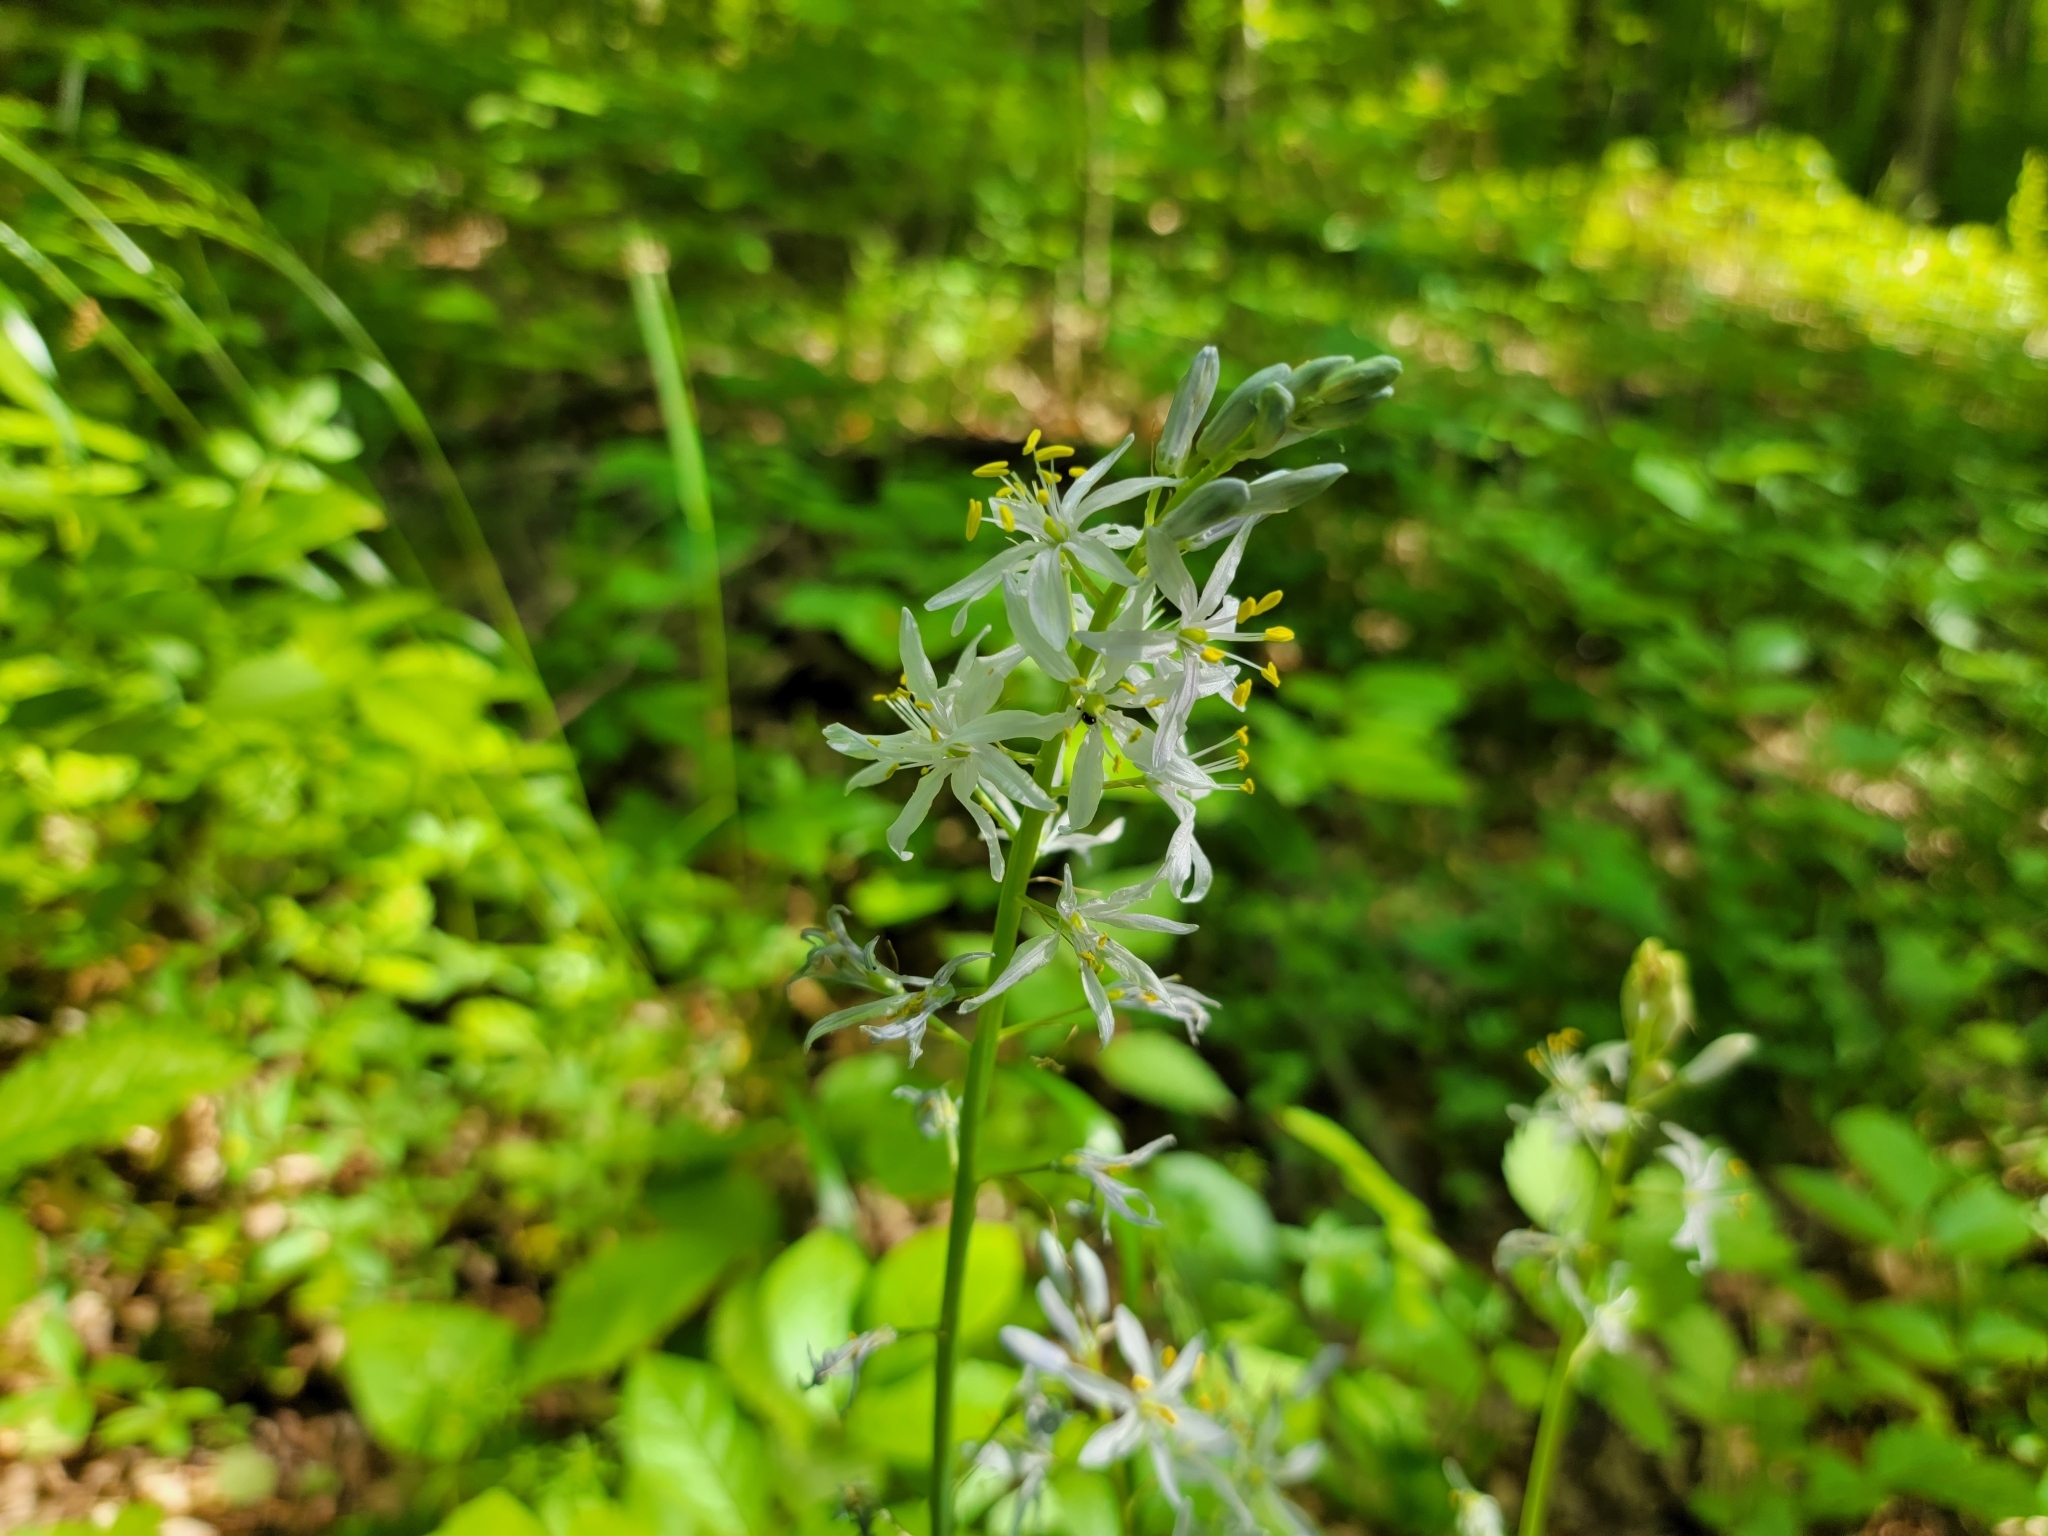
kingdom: Plantae
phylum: Tracheophyta
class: Liliopsida
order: Asparagales
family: Asparagaceae
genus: Camassia
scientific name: Camassia scilloides
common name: Wild hyacinth
